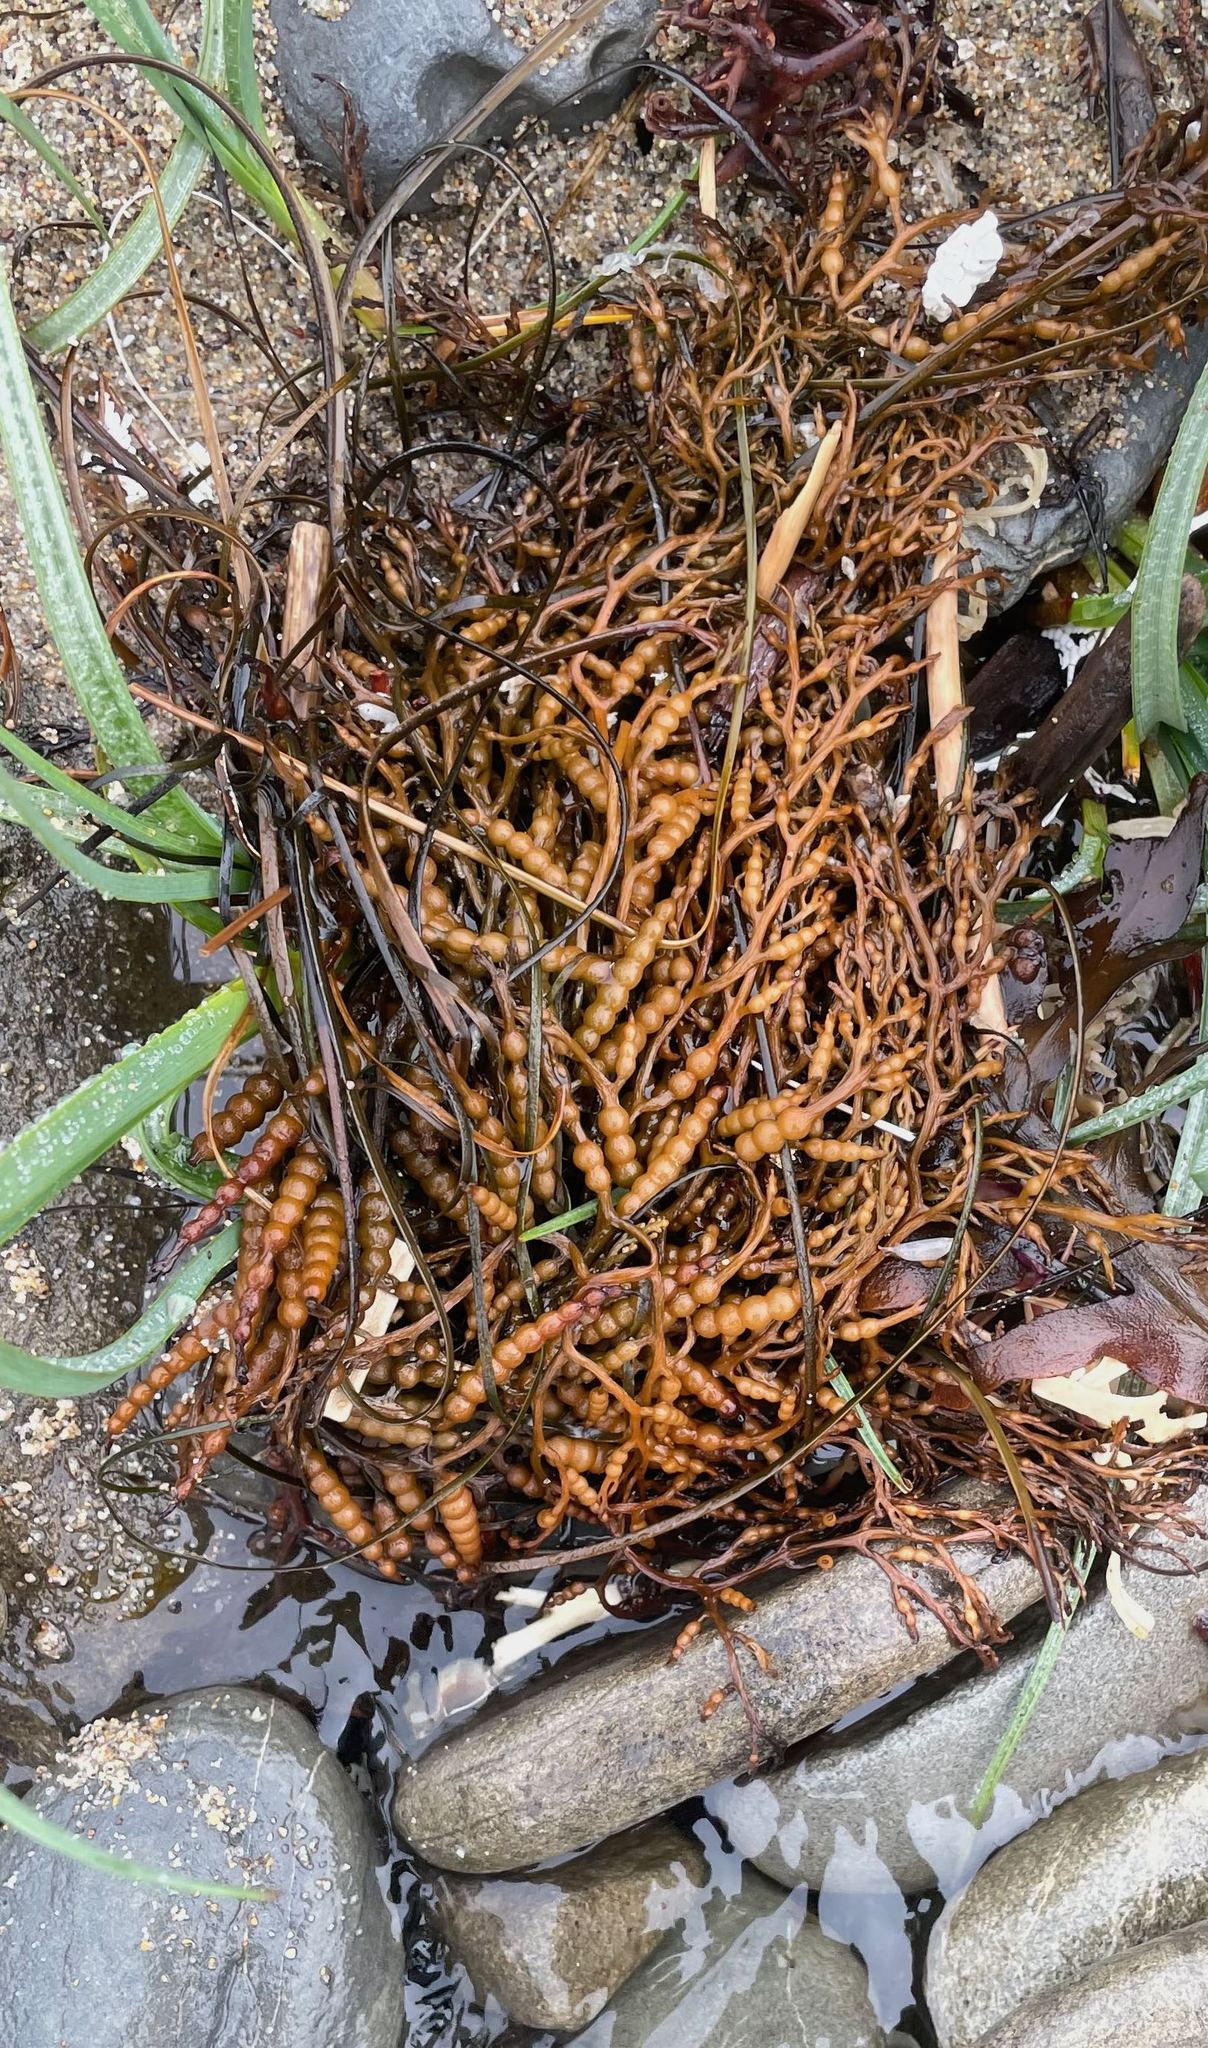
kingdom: Chromista
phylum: Ochrophyta
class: Phaeophyceae
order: Fucales
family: Sargassaceae
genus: Stephanocystis
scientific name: Stephanocystis
